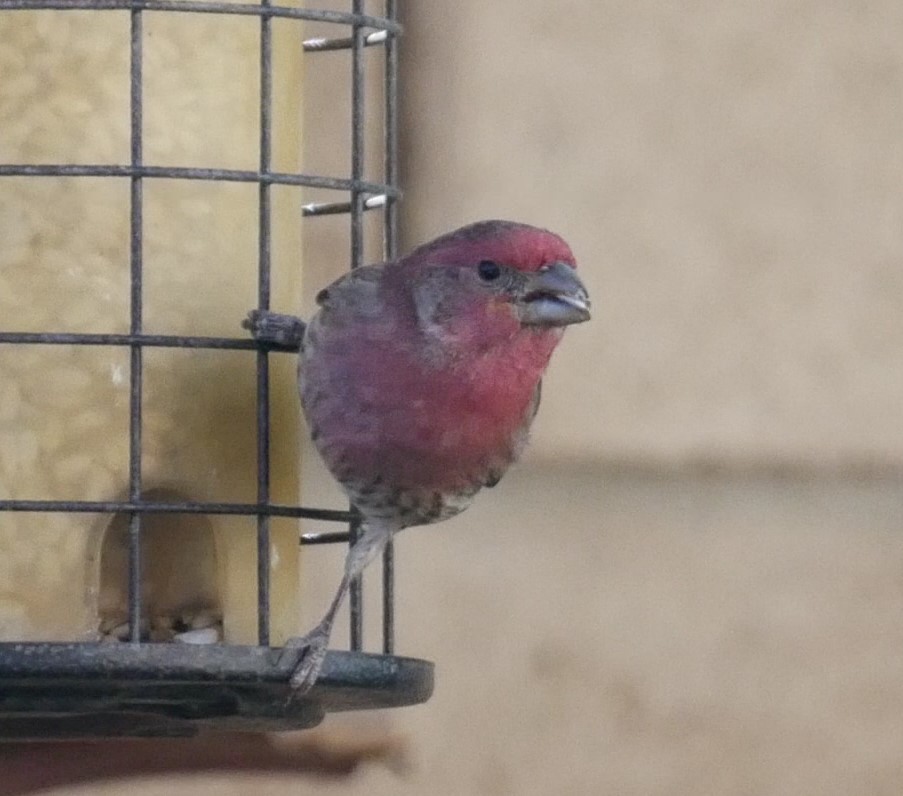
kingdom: Animalia
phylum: Chordata
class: Aves
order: Passeriformes
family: Fringillidae
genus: Haemorhous
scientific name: Haemorhous mexicanus
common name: House finch
